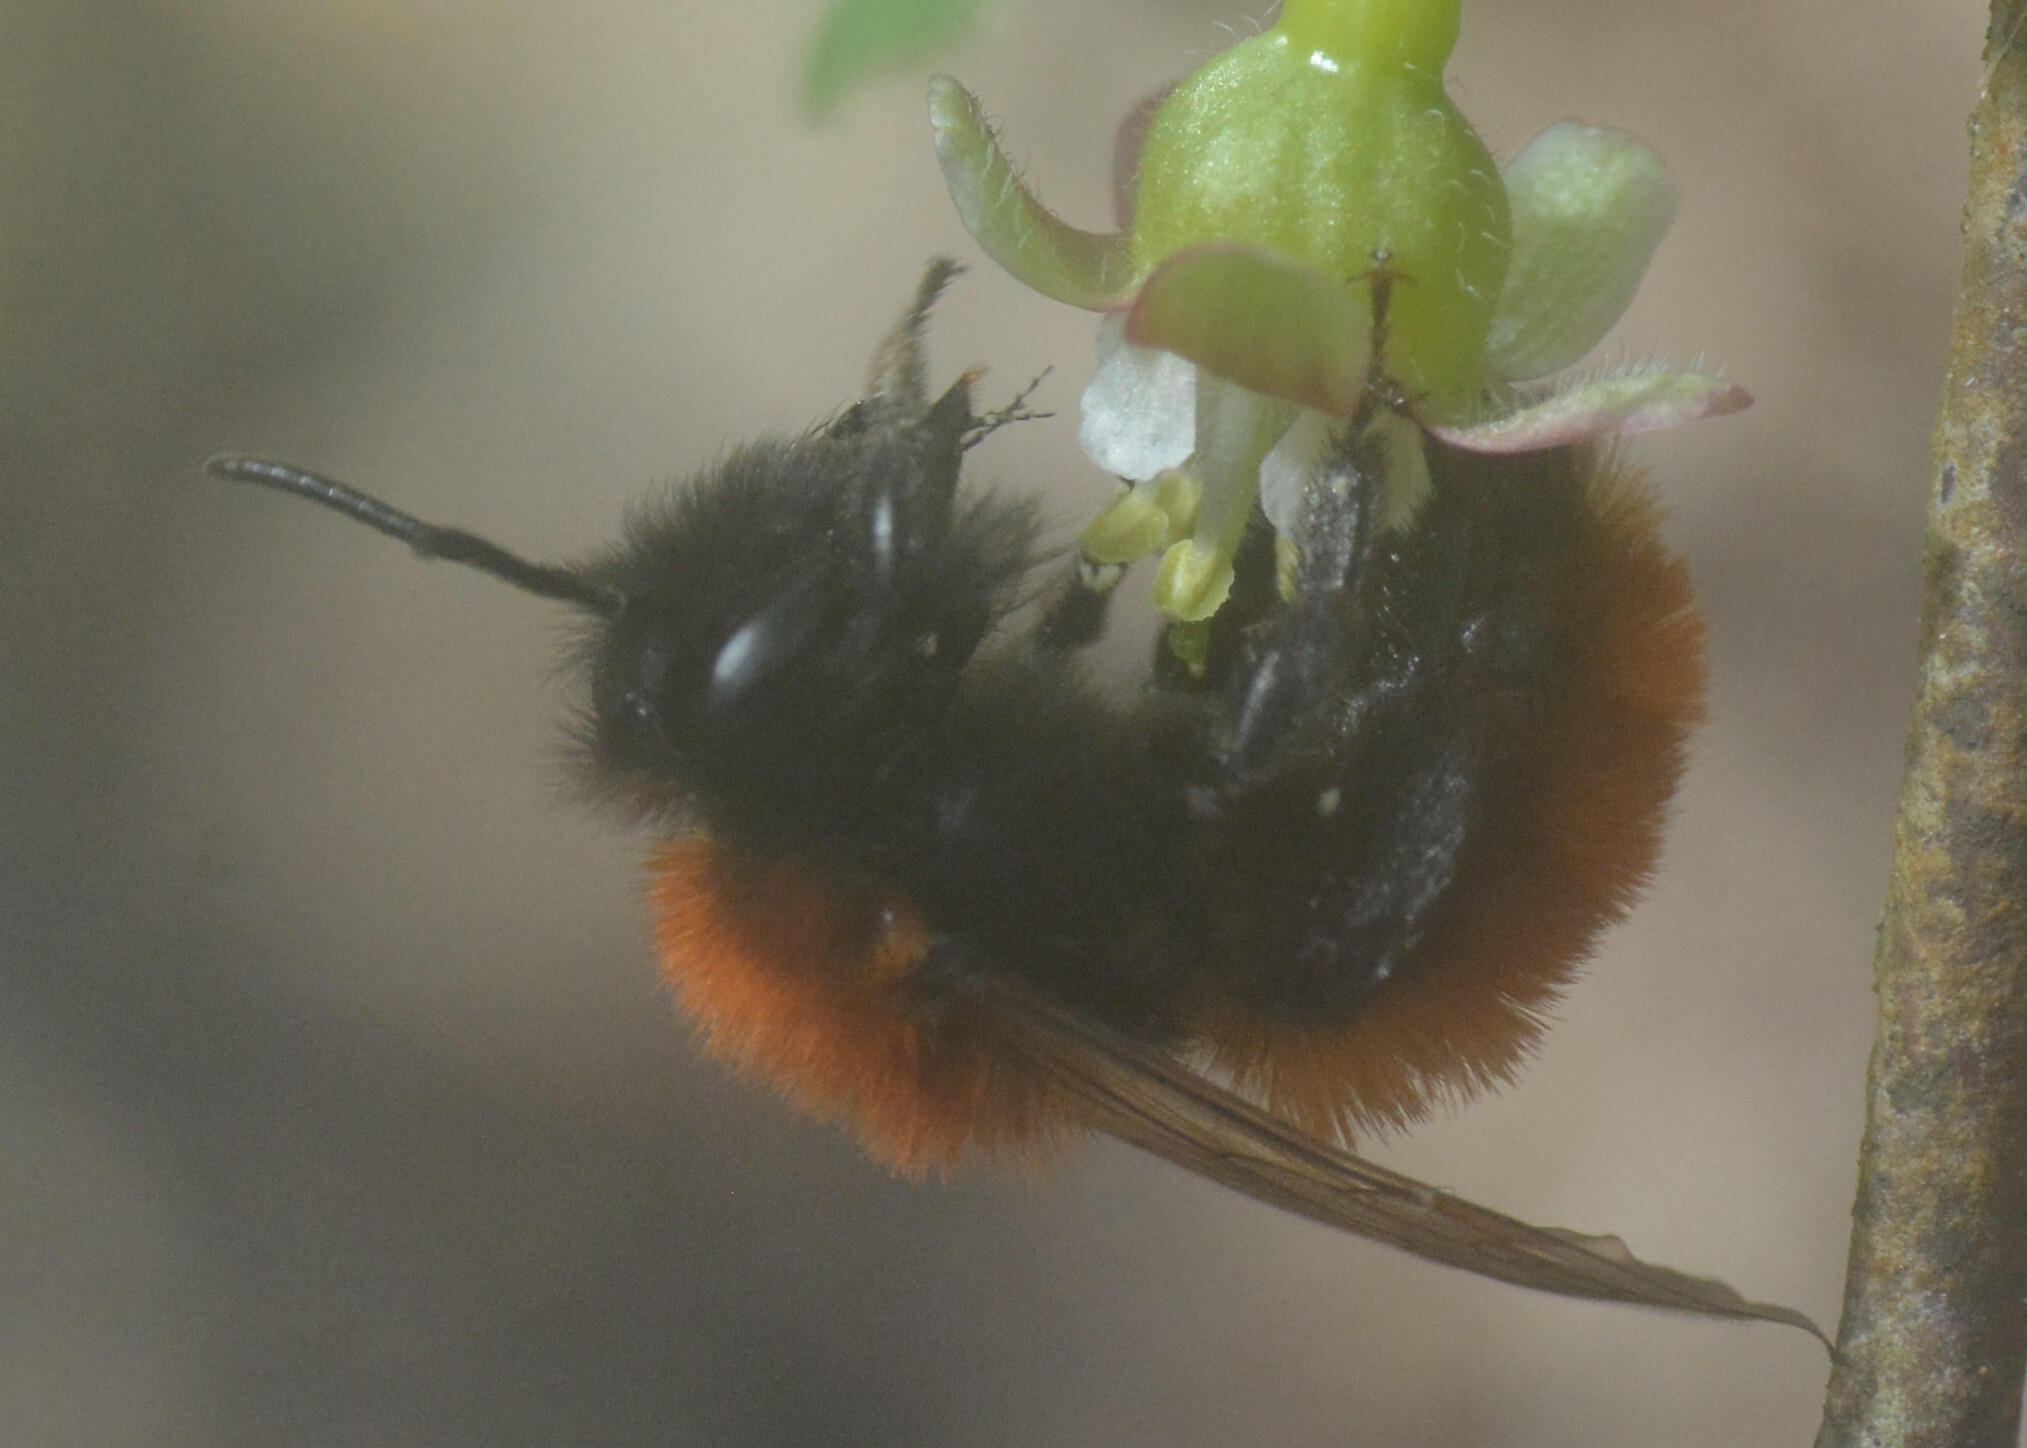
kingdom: Animalia
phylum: Arthropoda
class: Insecta
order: Hymenoptera
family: Andrenidae
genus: Andrena
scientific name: Andrena fulva
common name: Tawny mining bee
